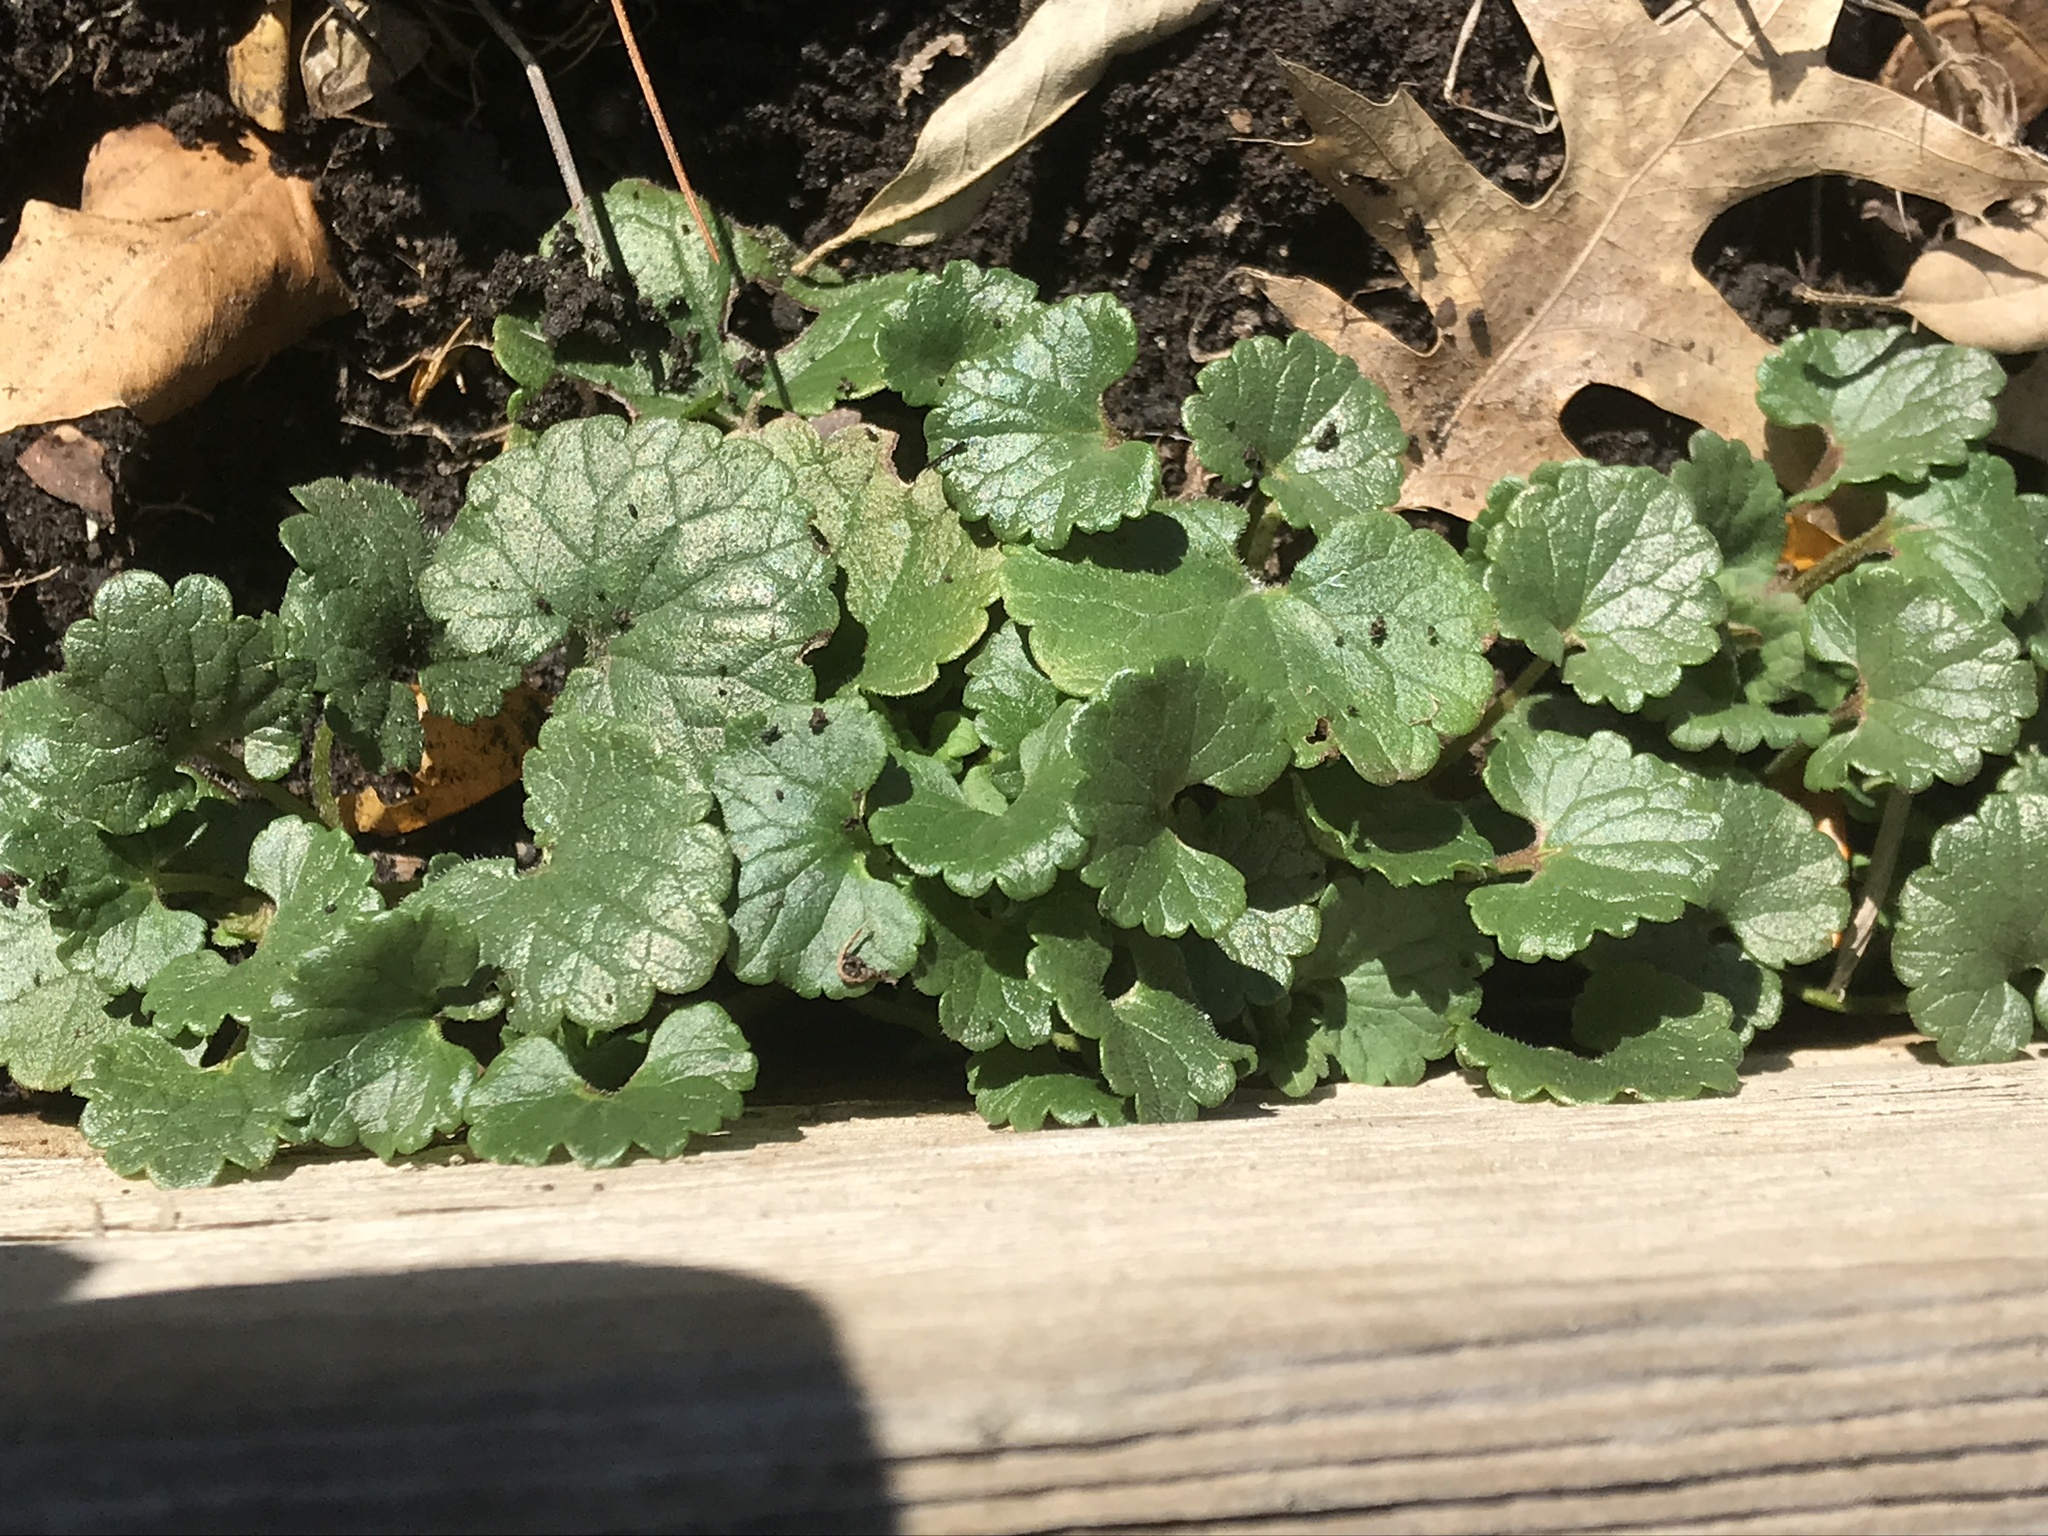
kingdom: Plantae
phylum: Tracheophyta
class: Magnoliopsida
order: Lamiales
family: Lamiaceae
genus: Glechoma
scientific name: Glechoma hederacea
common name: Ground ivy
